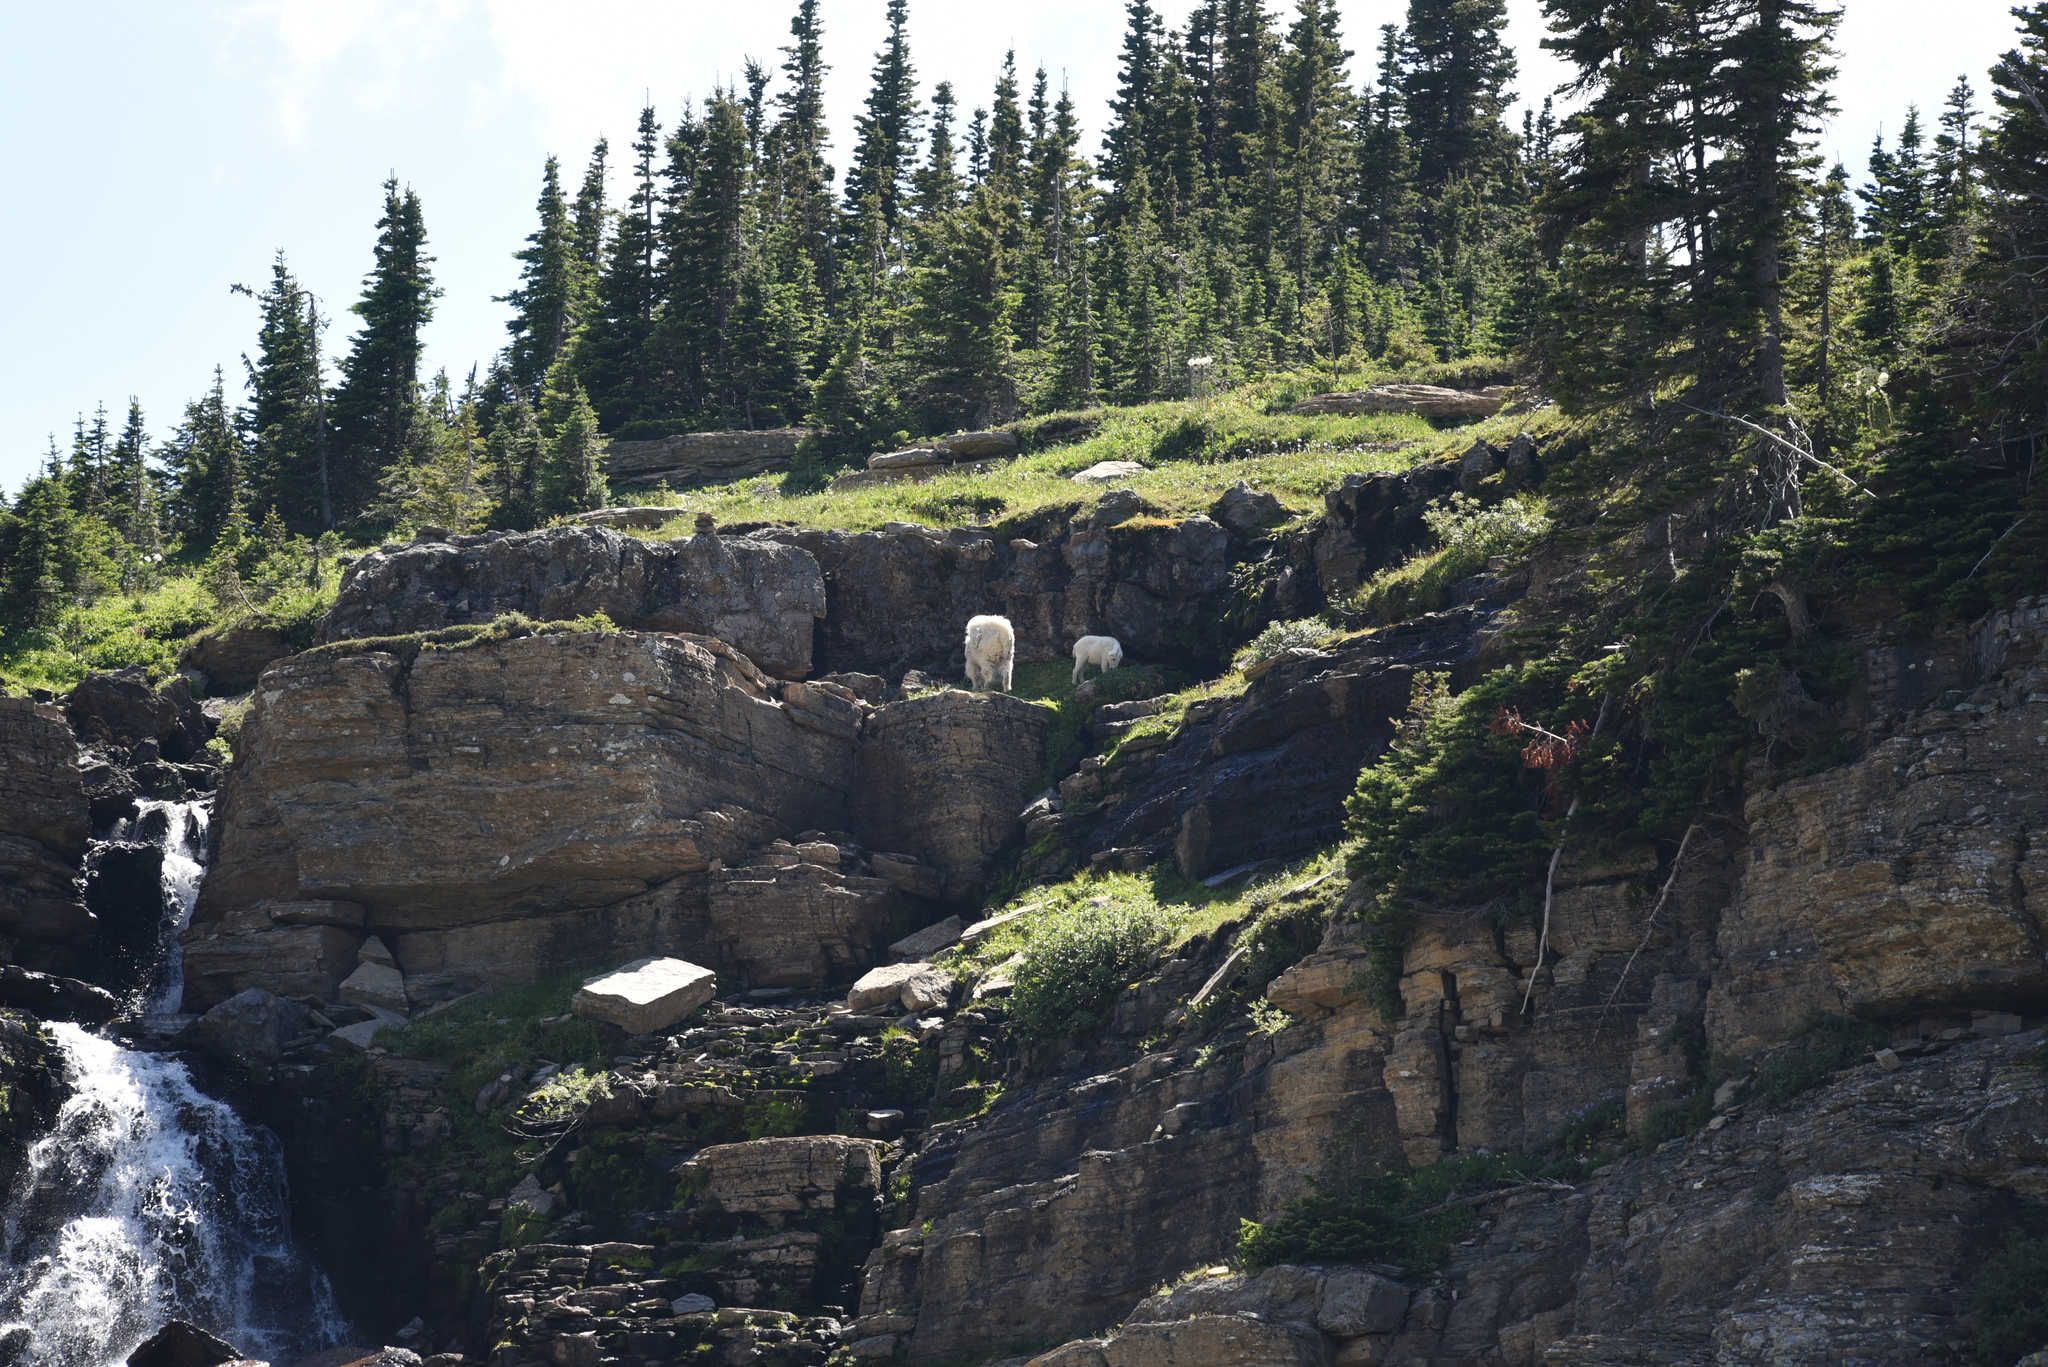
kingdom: Animalia
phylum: Chordata
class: Mammalia
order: Artiodactyla
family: Bovidae
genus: Oreamnos
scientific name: Oreamnos americanus
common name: Mountain goat
